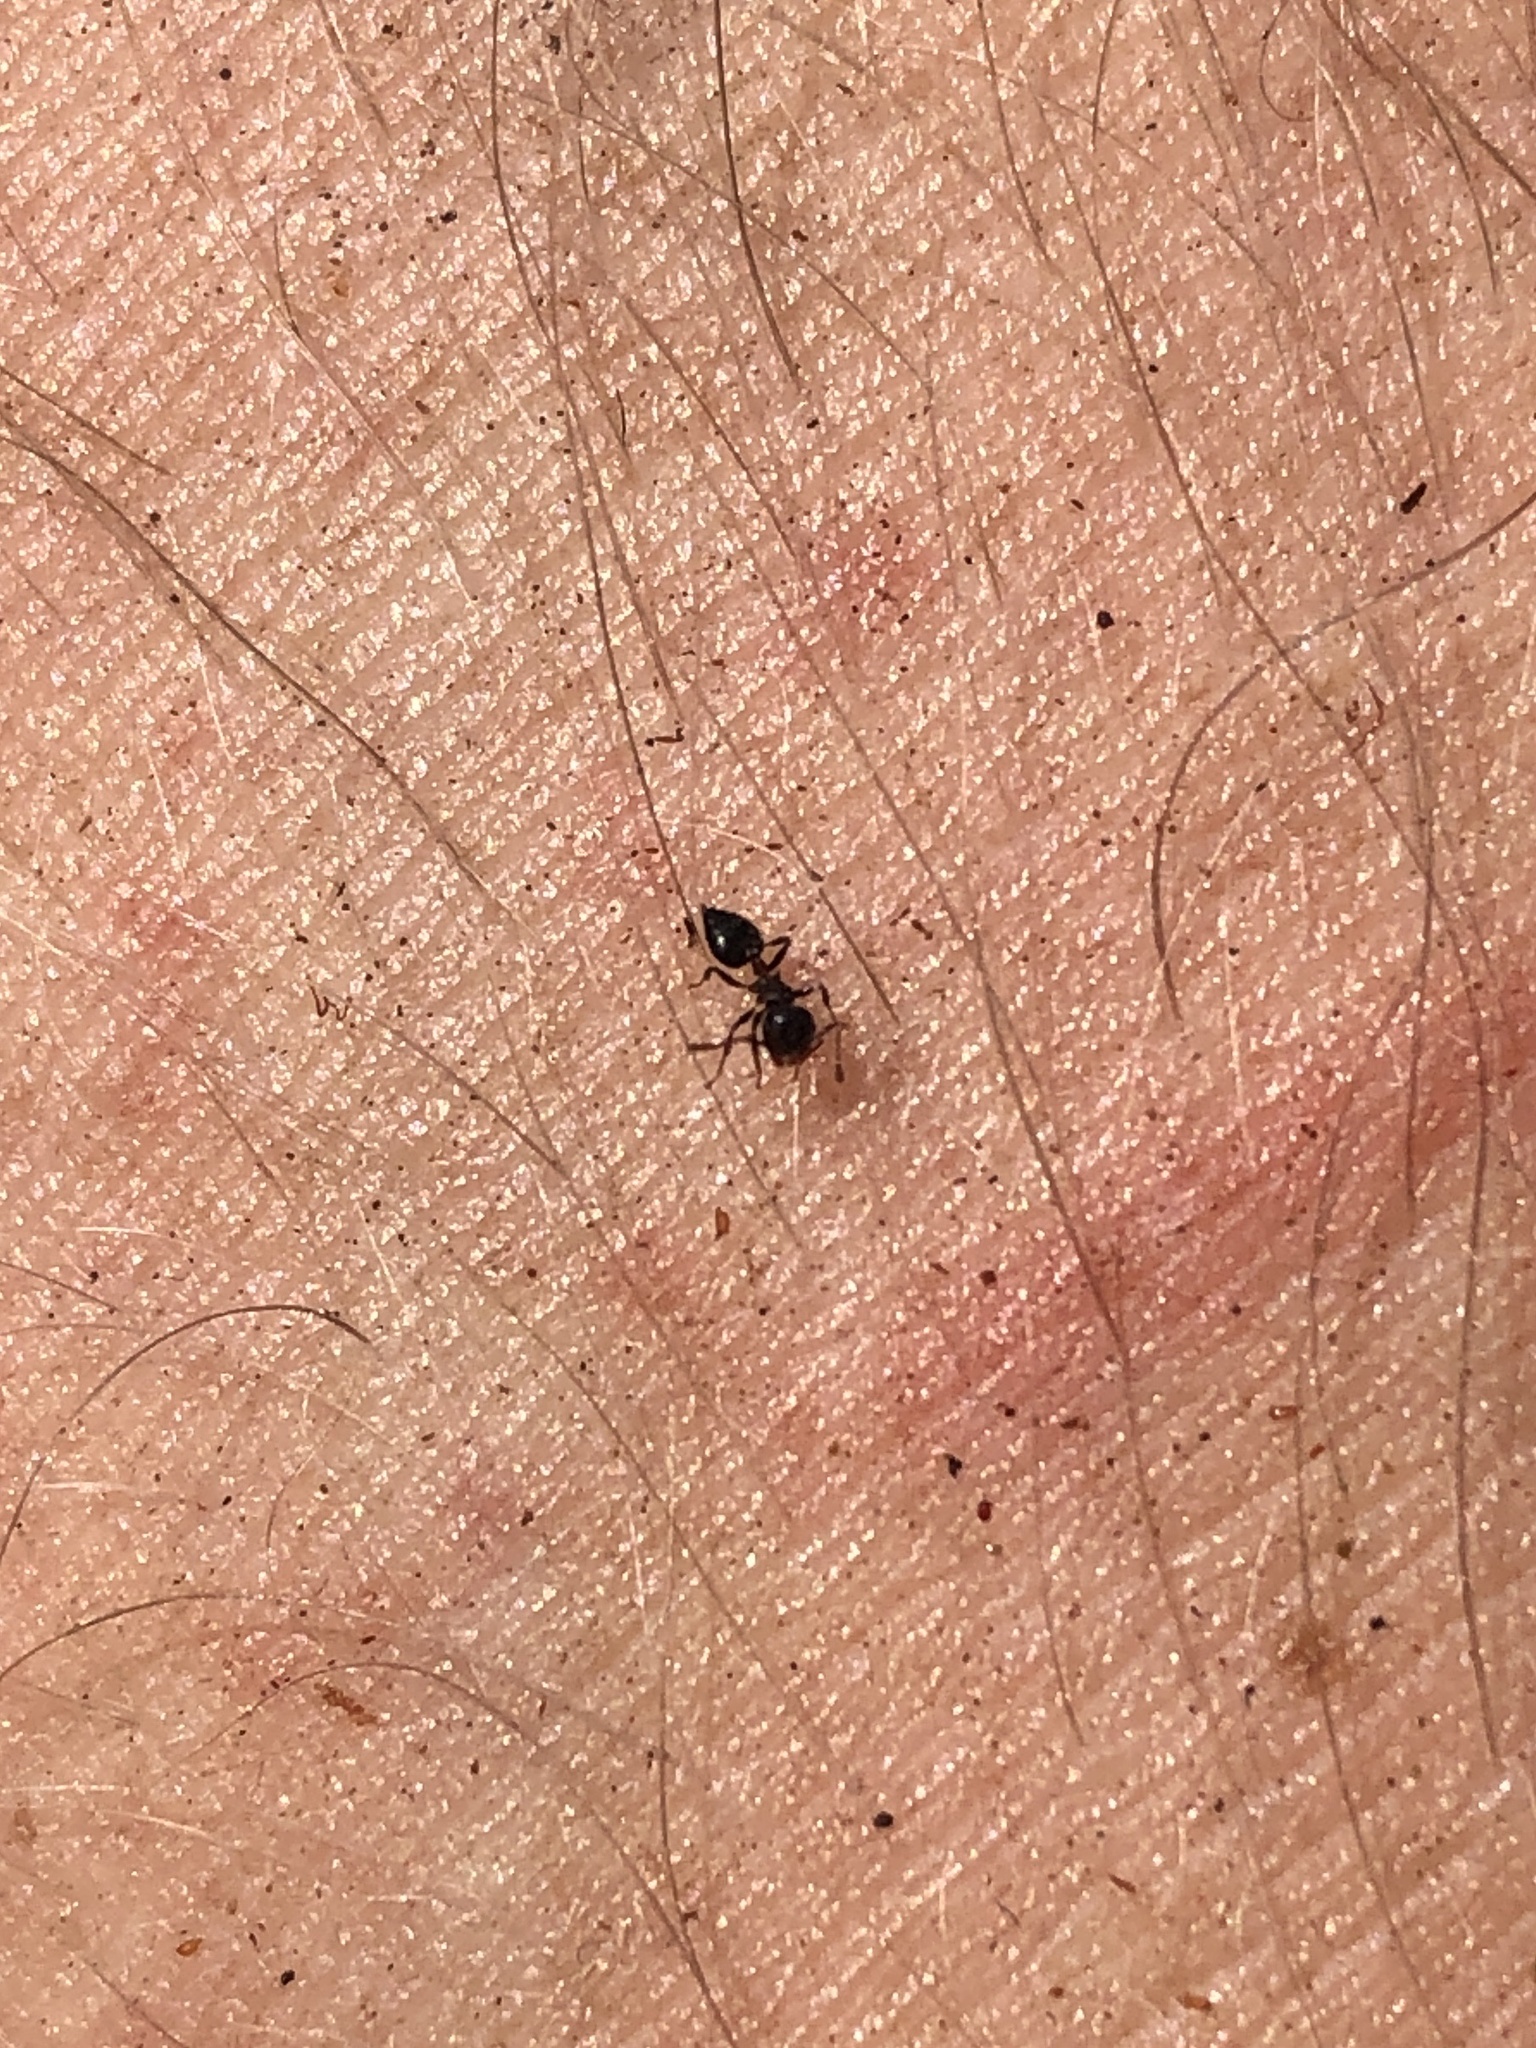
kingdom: Animalia
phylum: Arthropoda
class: Insecta
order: Hymenoptera
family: Formicidae
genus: Crematogaster
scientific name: Crematogaster ashmeadi
